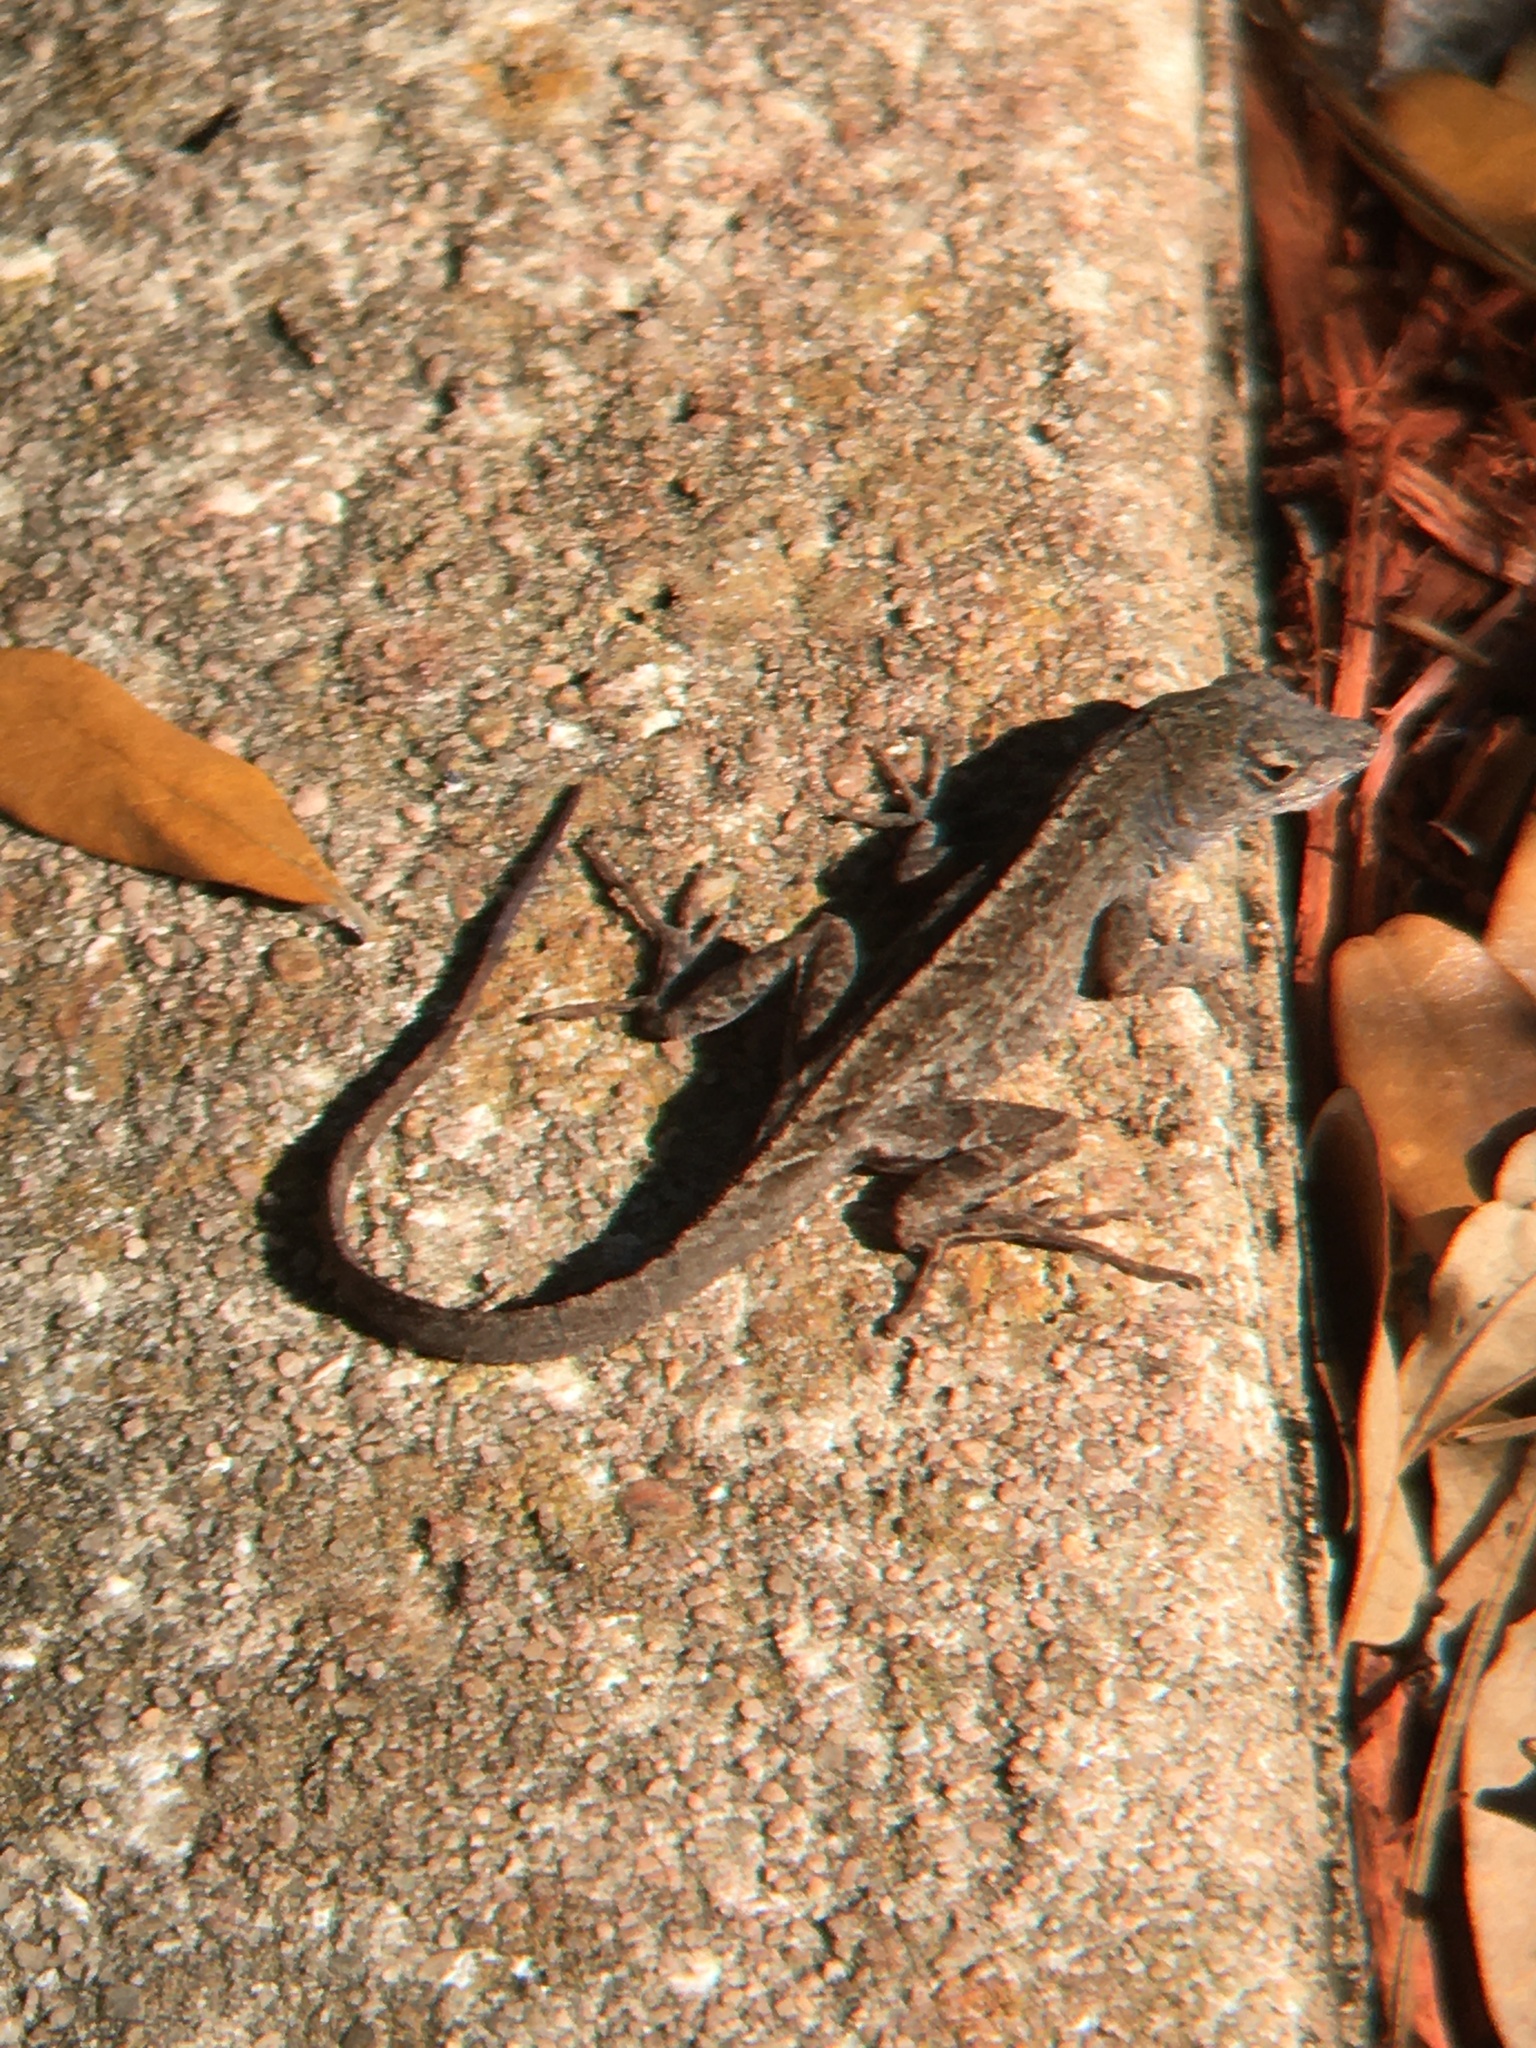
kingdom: Animalia
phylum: Chordata
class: Squamata
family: Dactyloidae
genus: Anolis
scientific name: Anolis sagrei
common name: Brown anole
